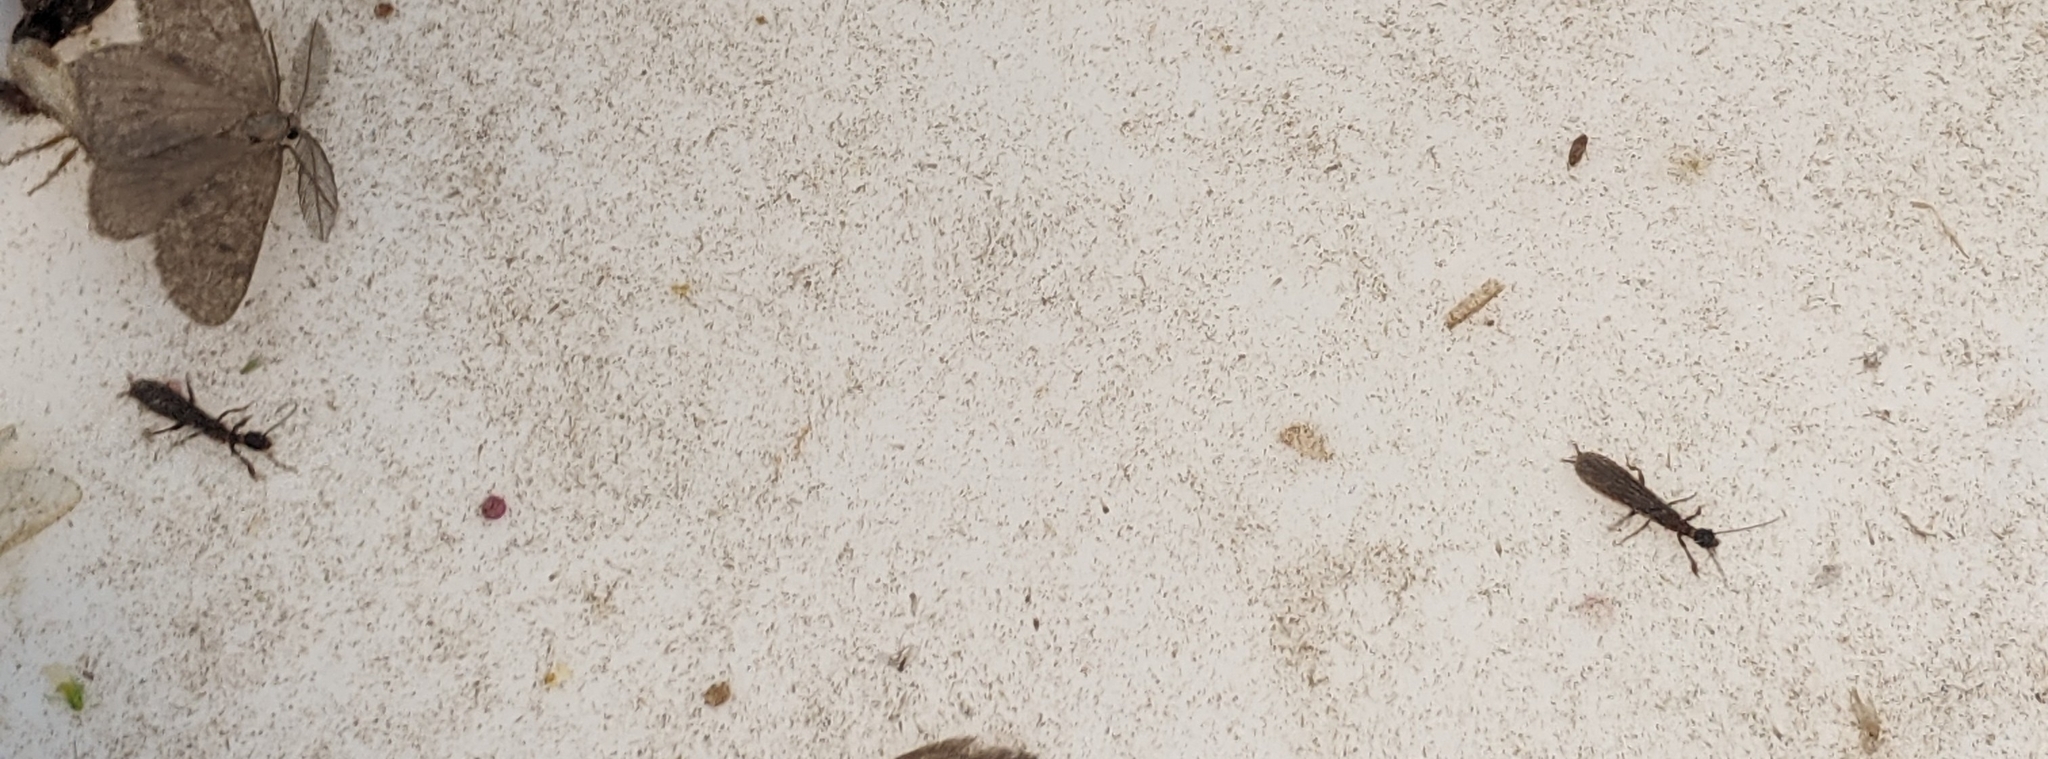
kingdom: Animalia
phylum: Arthropoda
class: Insecta
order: Embioptera
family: Oligotomidae
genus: Oligotoma
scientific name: Oligotoma nigra
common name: Black webspinner
